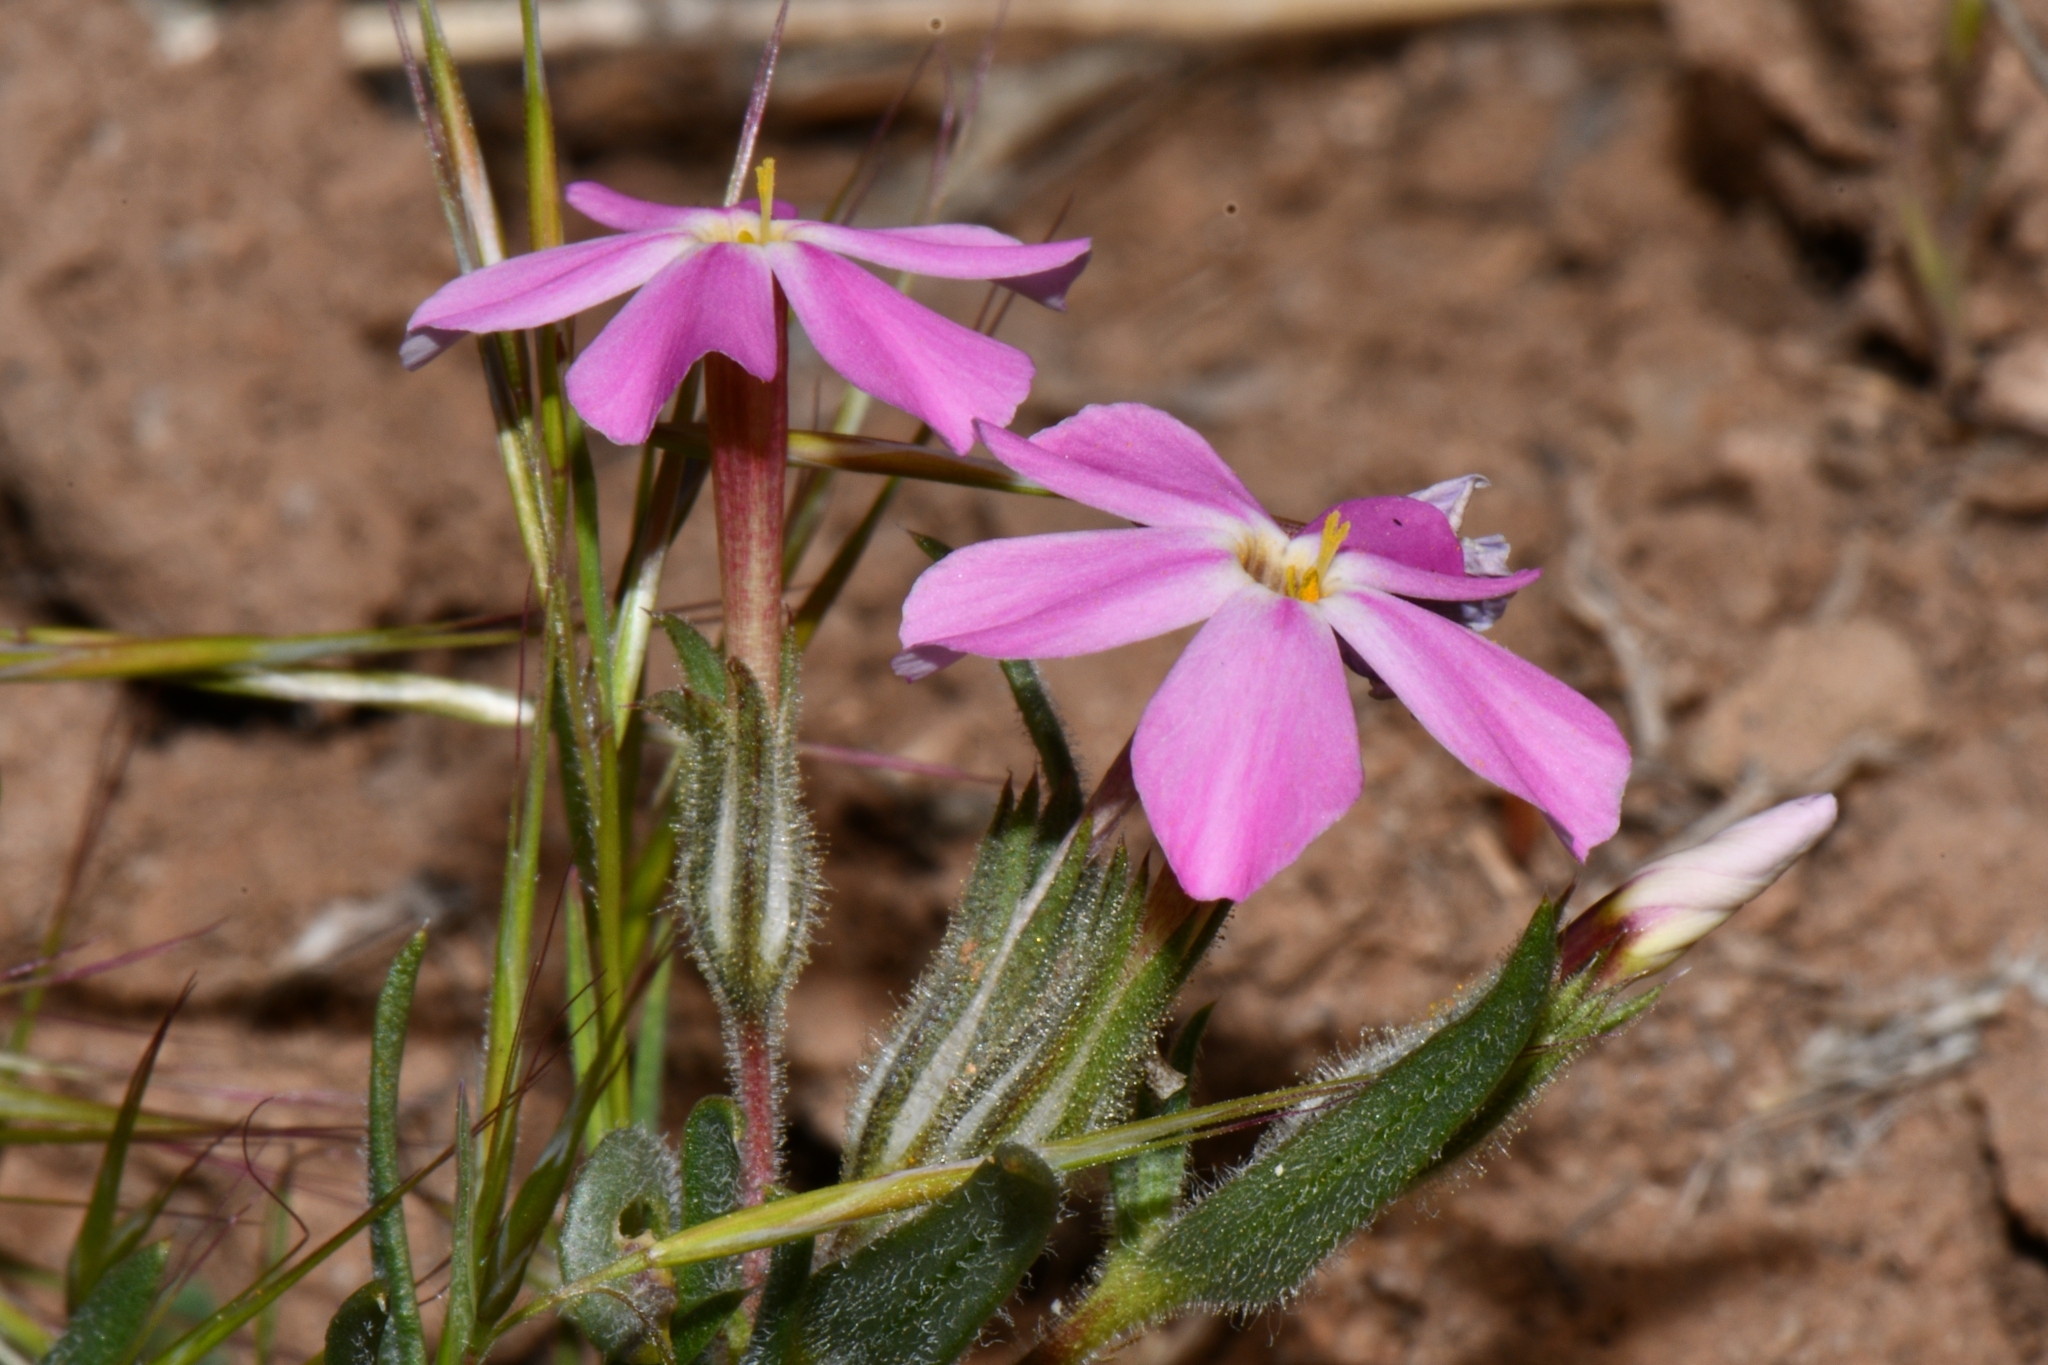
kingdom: Plantae
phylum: Tracheophyta
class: Magnoliopsida
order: Ericales
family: Polemoniaceae
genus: Phlox
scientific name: Phlox longifolia
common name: Longleaf phlox
